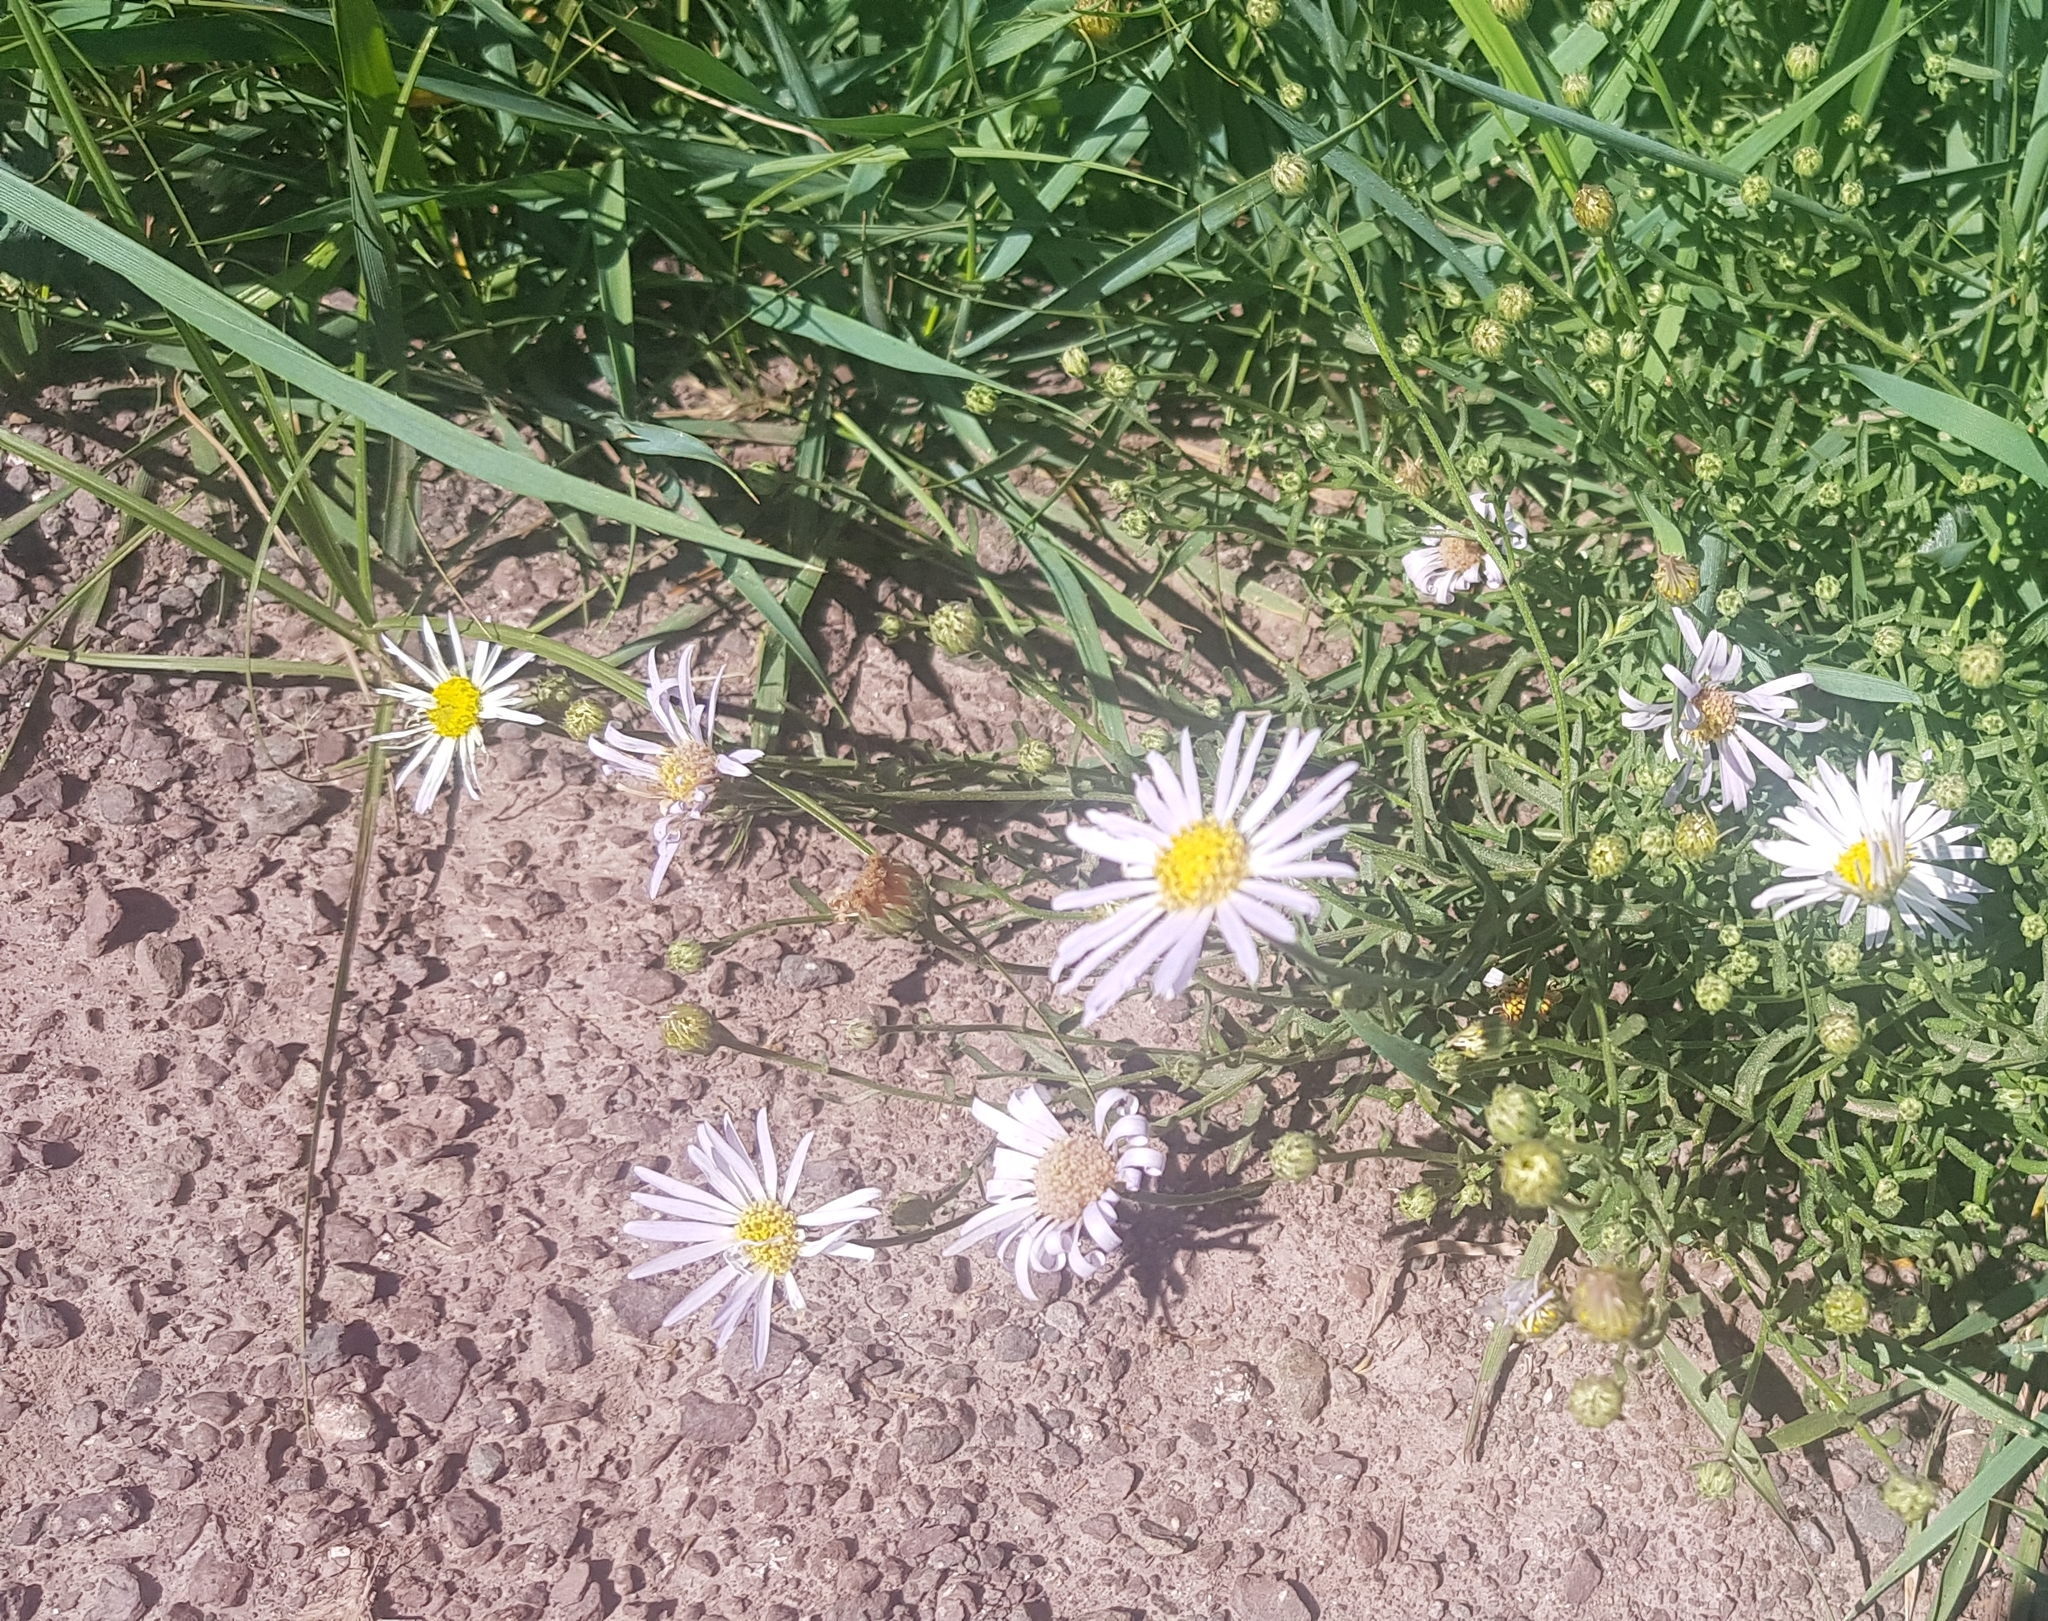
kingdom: Plantae
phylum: Tracheophyta
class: Magnoliopsida
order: Asterales
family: Asteraceae
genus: Heteropappus
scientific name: Heteropappus altaicus
